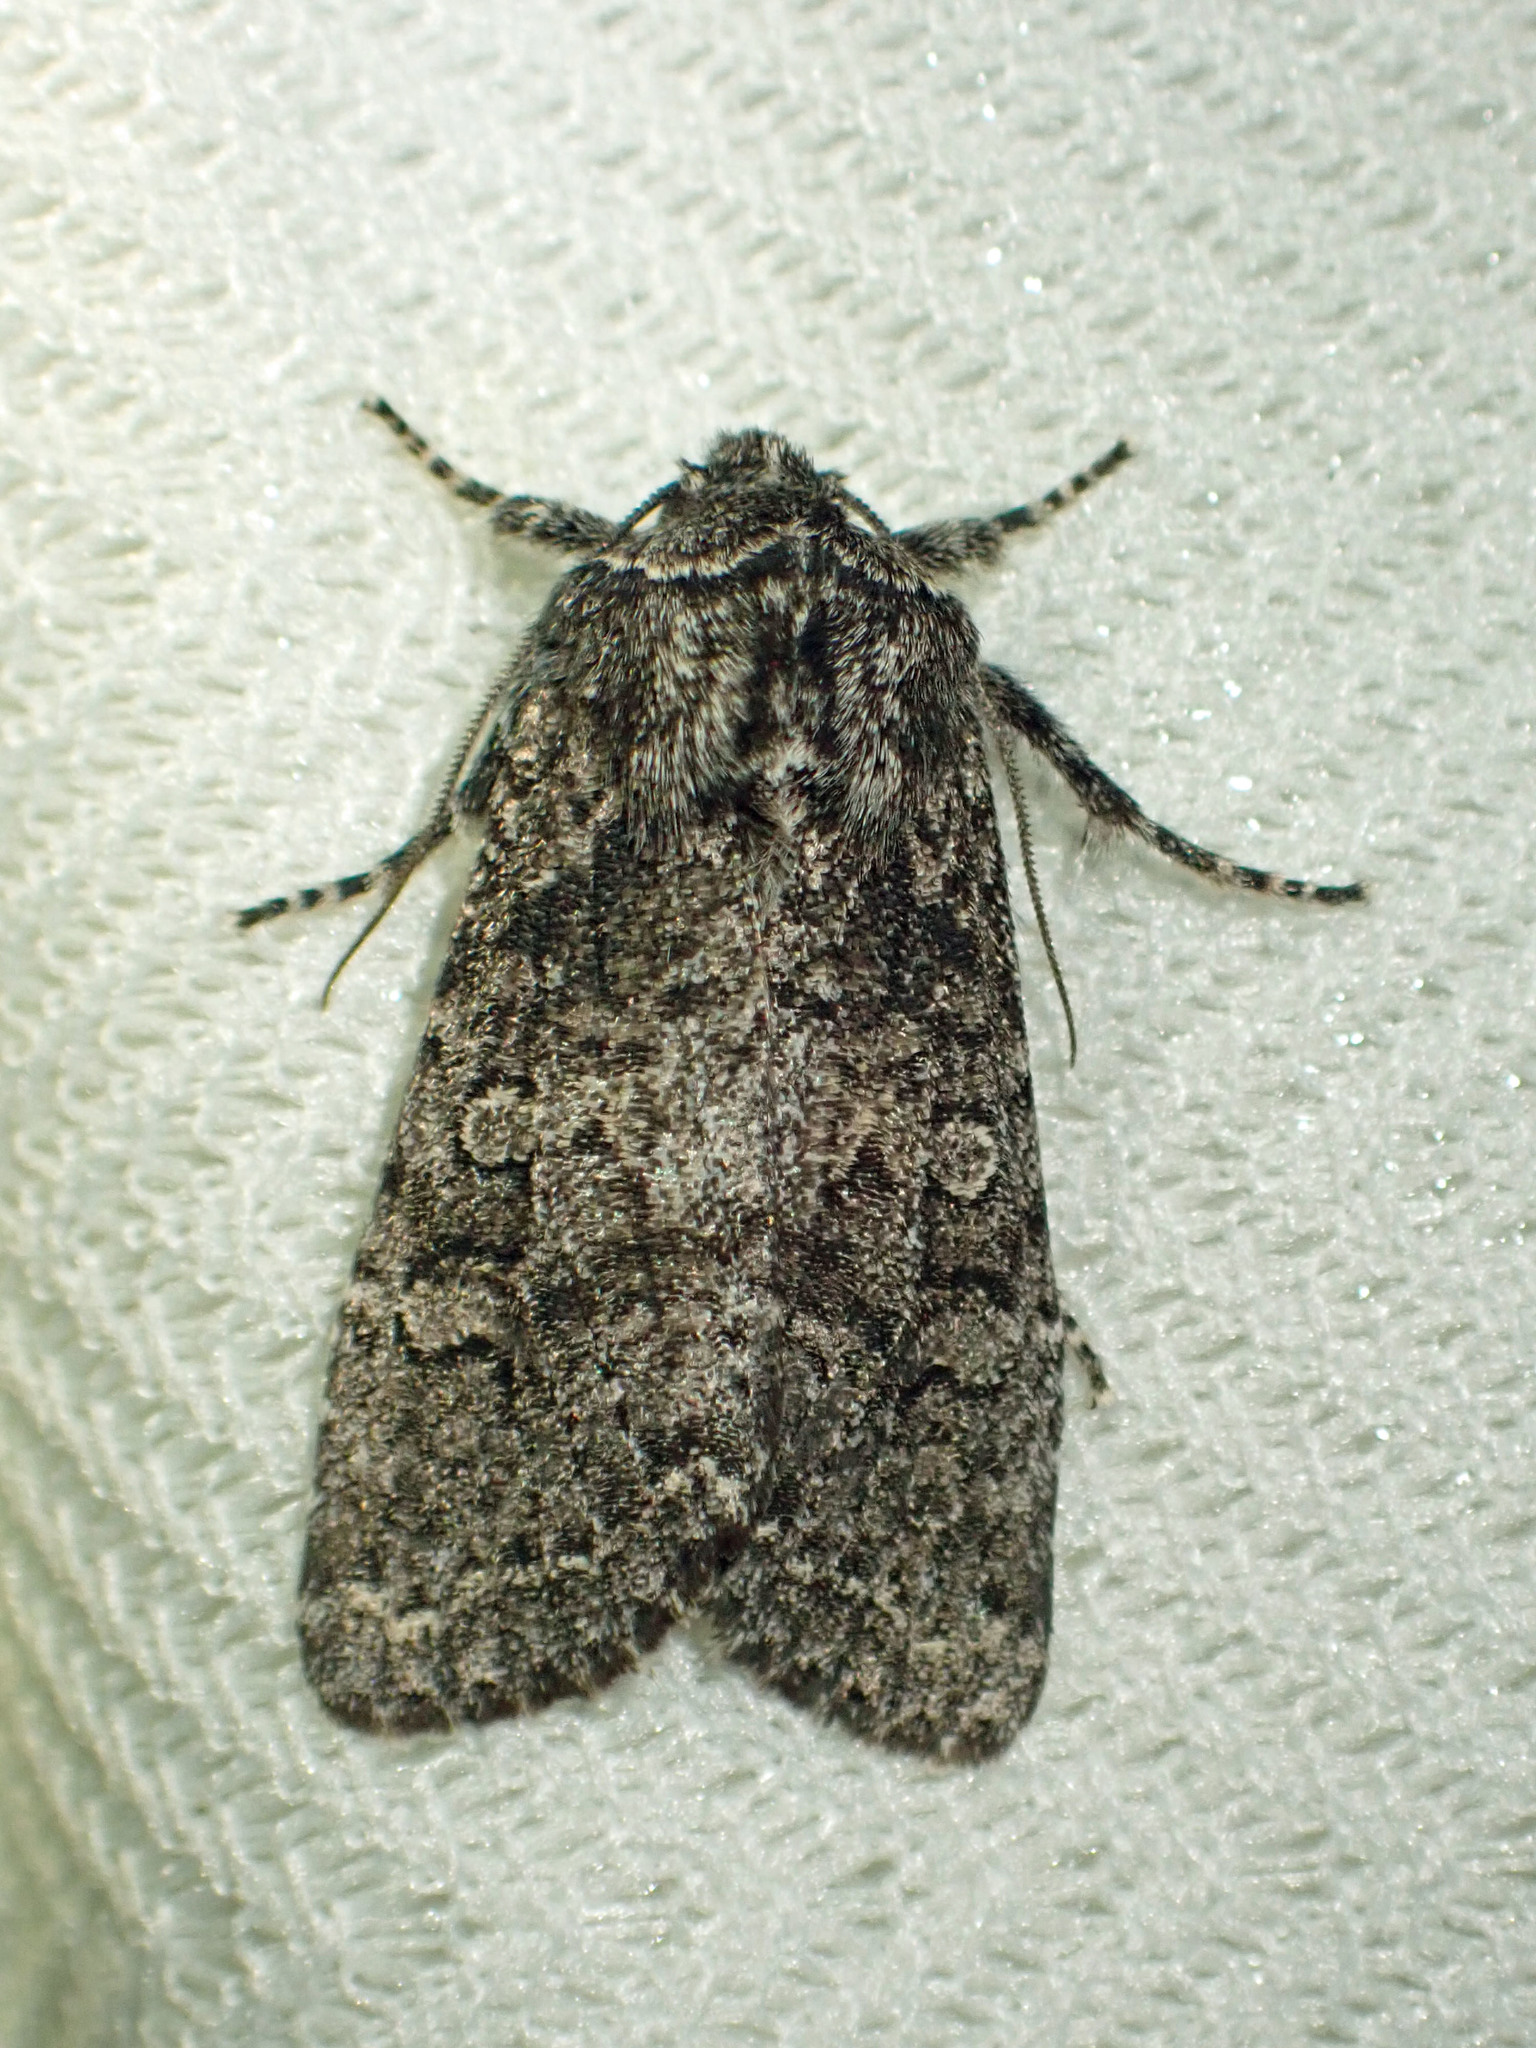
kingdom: Animalia
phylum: Arthropoda
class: Insecta
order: Lepidoptera
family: Noctuidae
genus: Egira
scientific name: Egira dolosa
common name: Lined black aspen cat.
